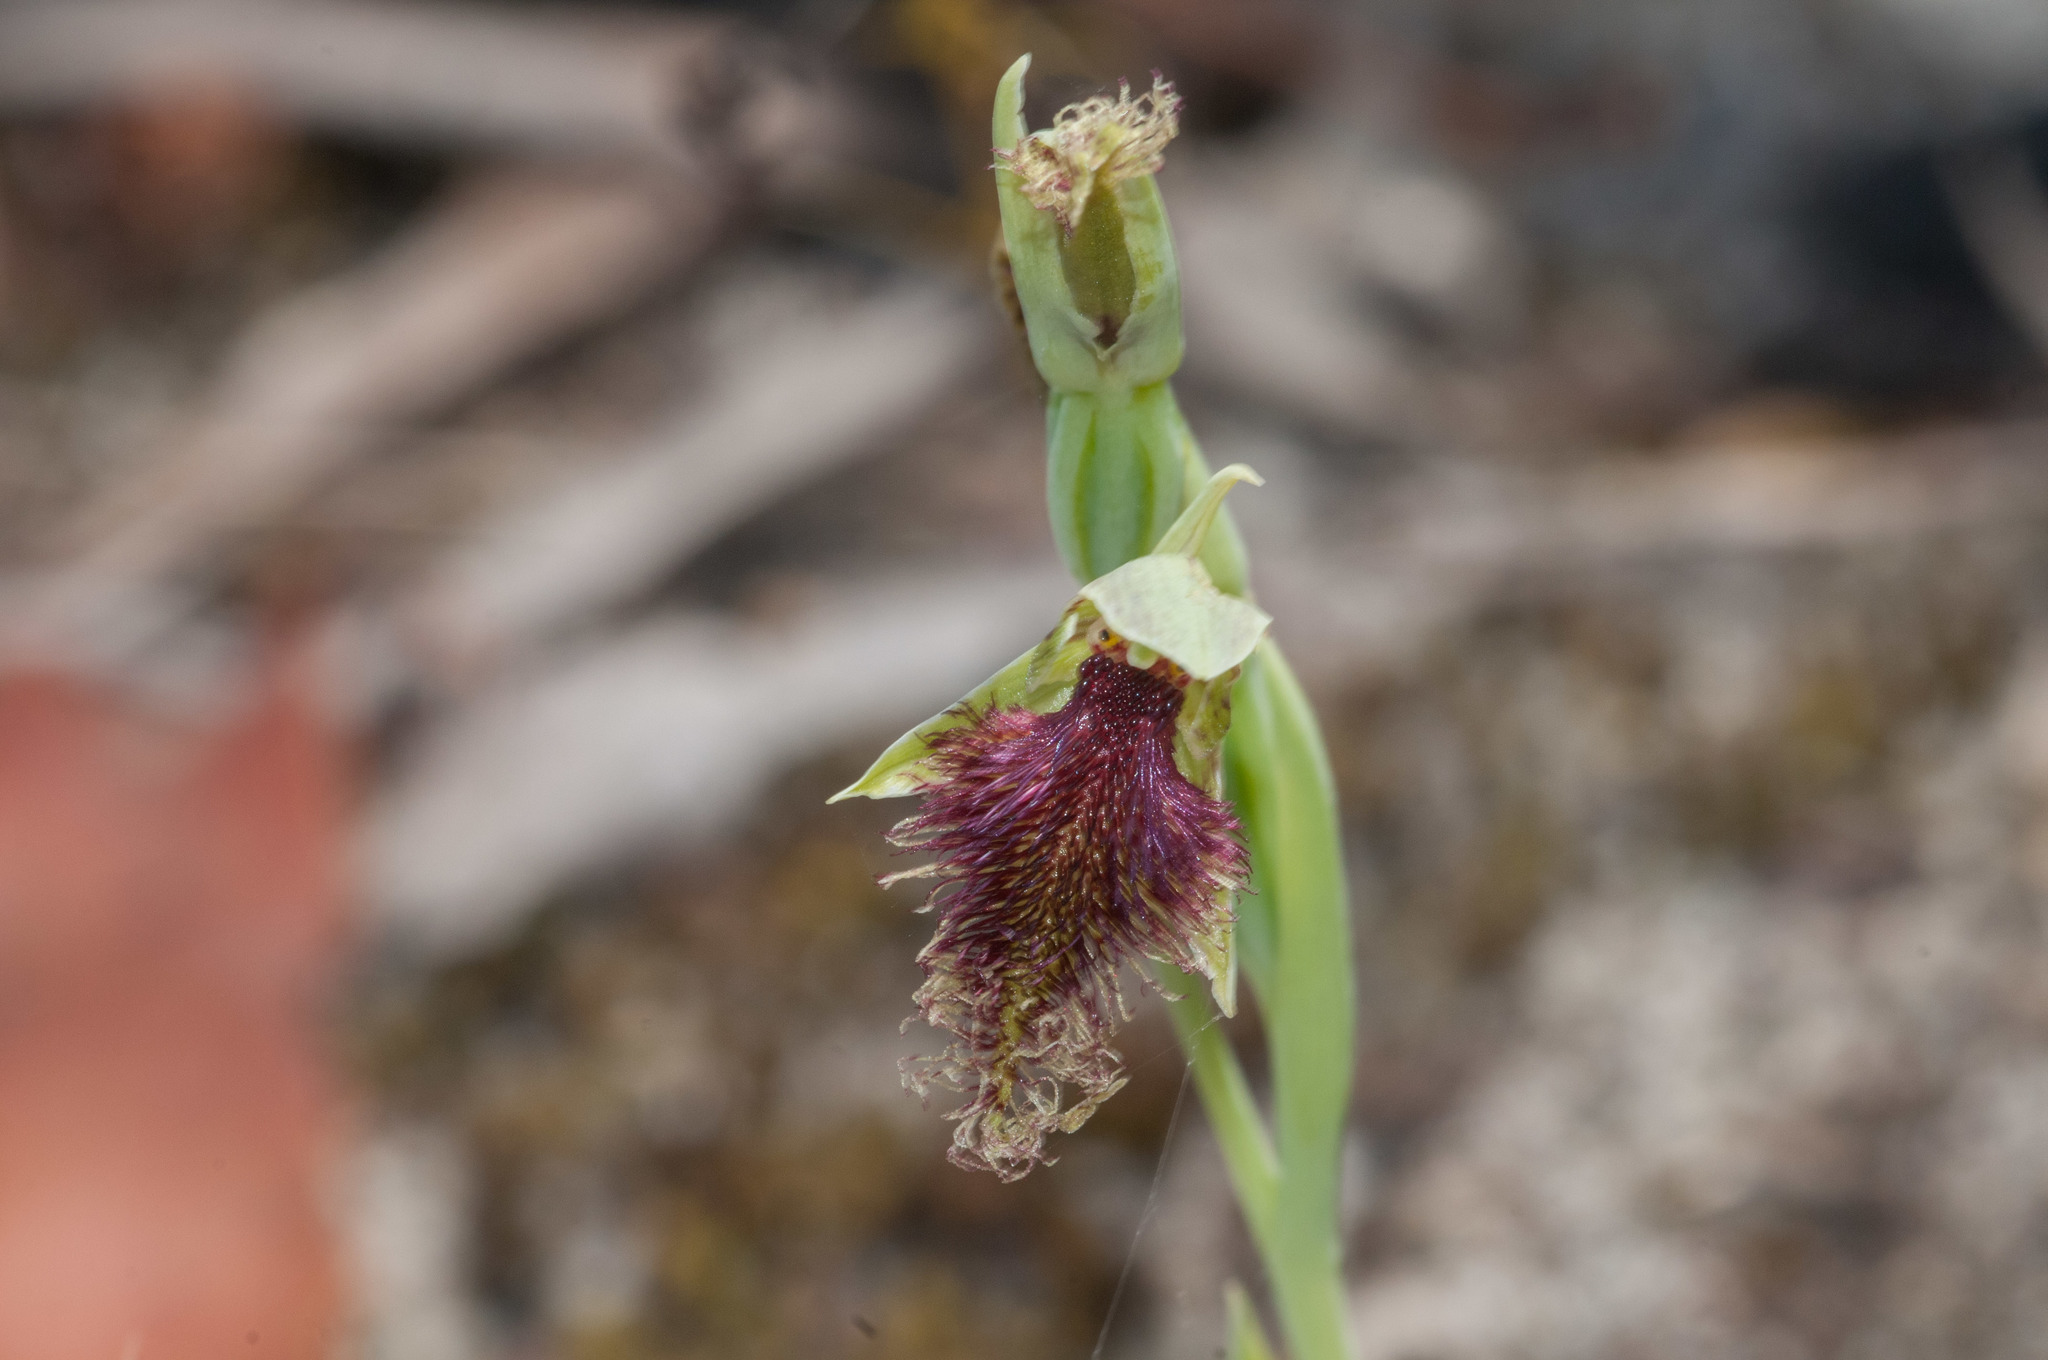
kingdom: Plantae
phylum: Tracheophyta
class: Liliopsida
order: Asparagales
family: Orchidaceae
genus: Calochilus
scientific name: Calochilus robertsonii
